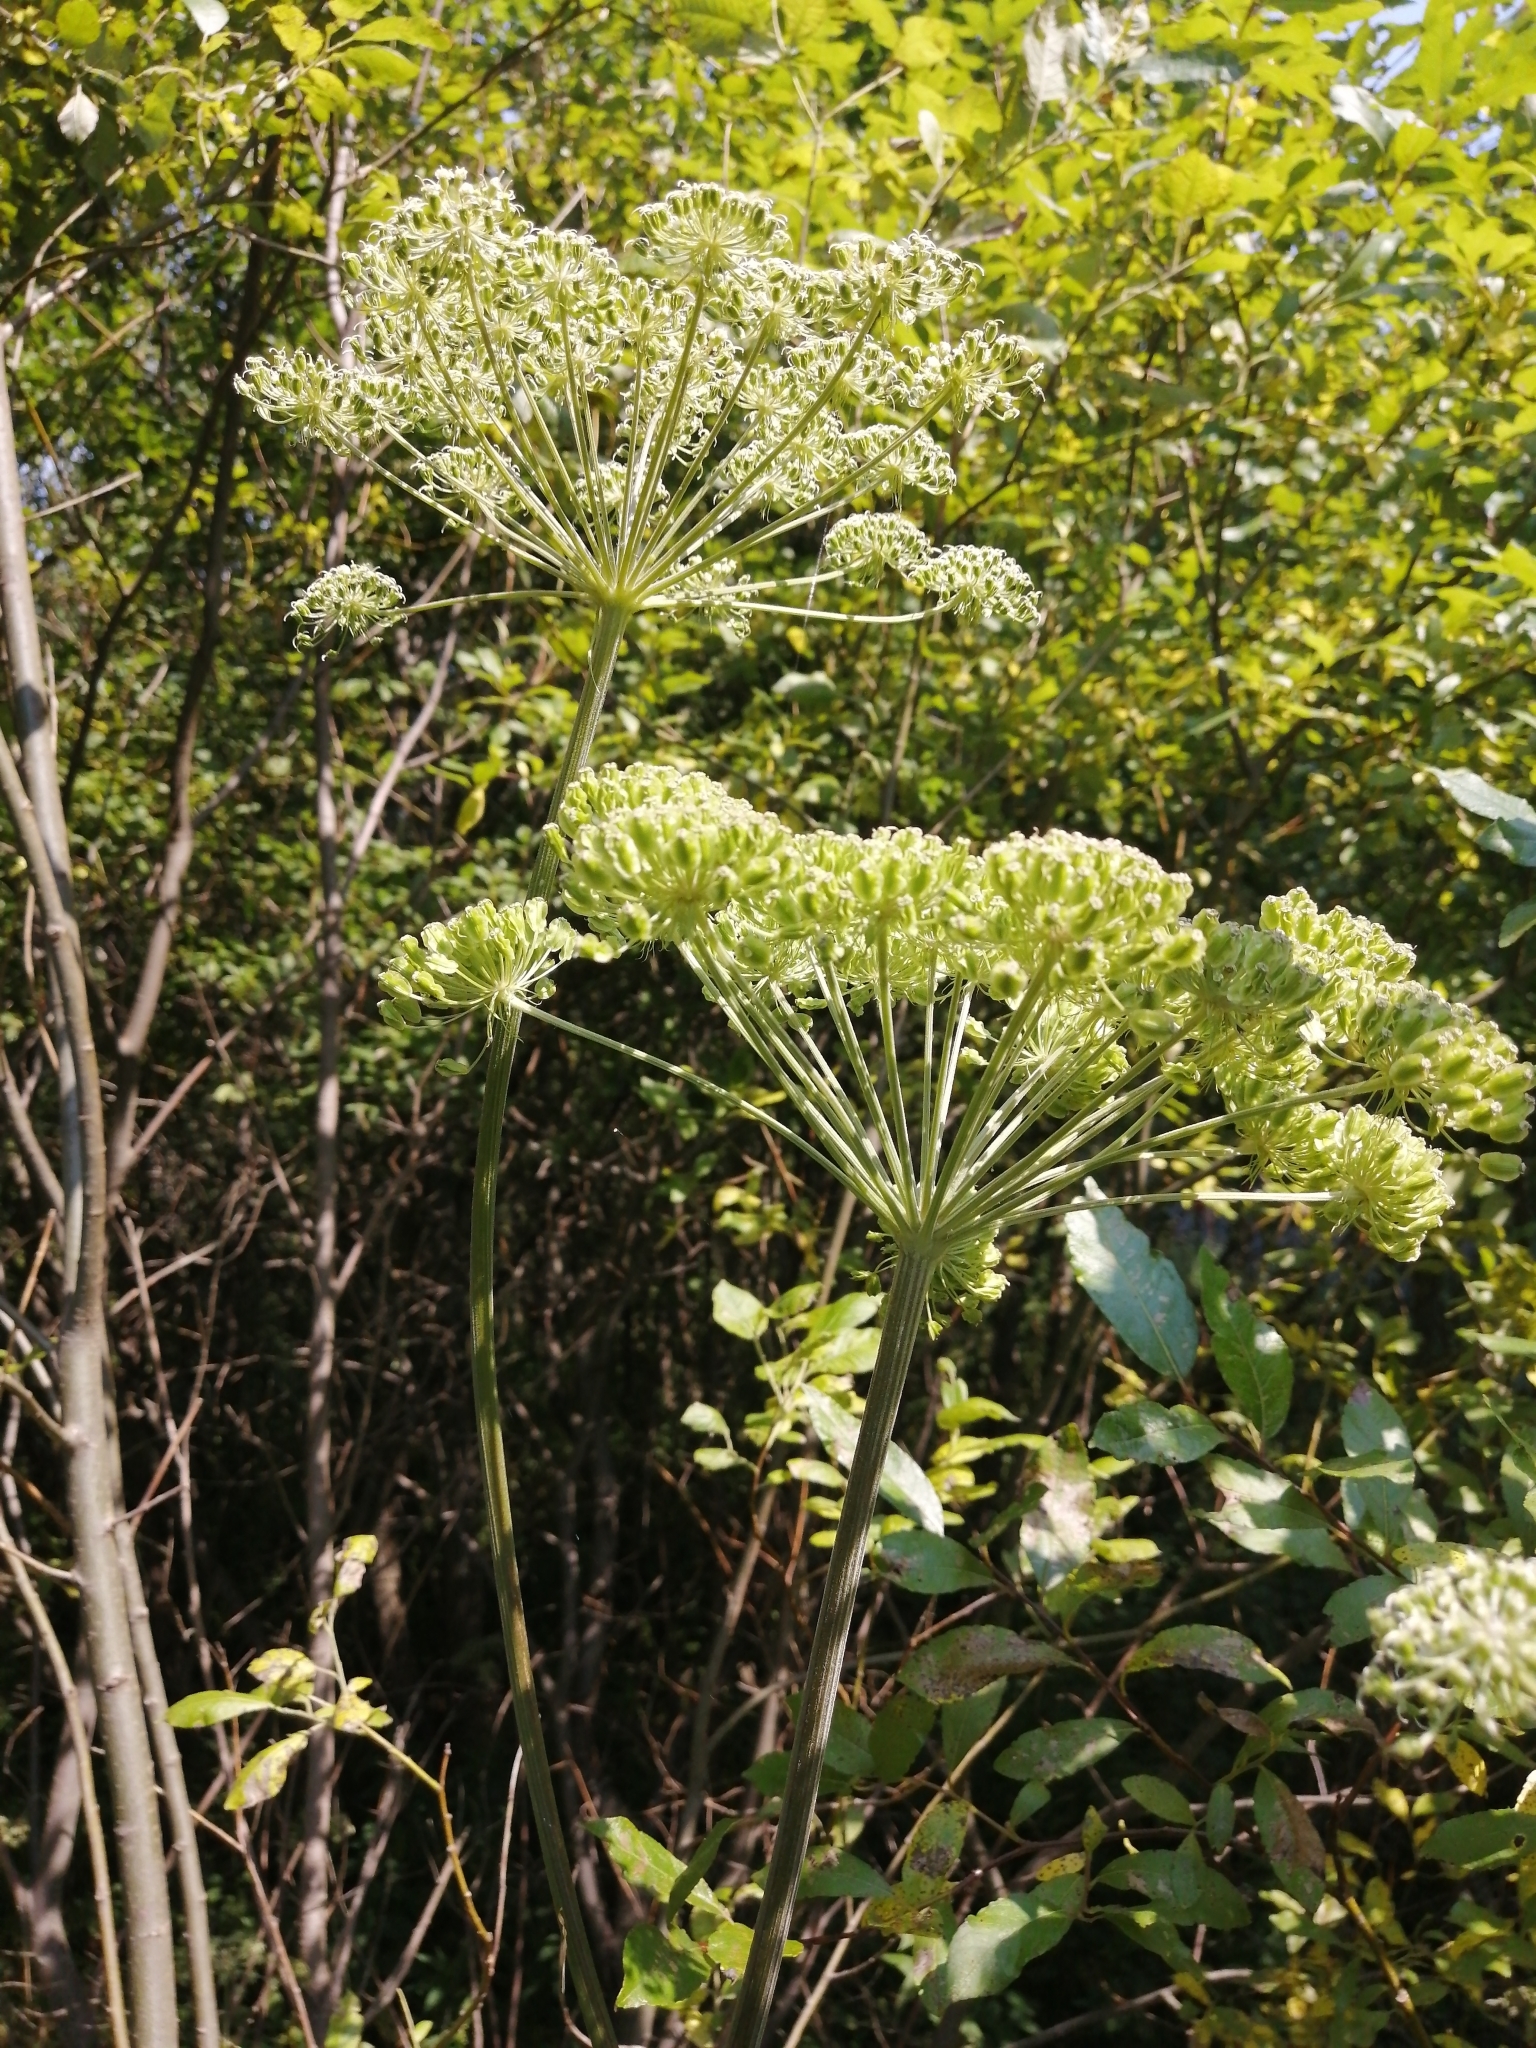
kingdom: Plantae
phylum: Tracheophyta
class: Magnoliopsida
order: Apiales
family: Apiaceae
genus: Angelica
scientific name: Angelica sylvestris
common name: Wild angelica
